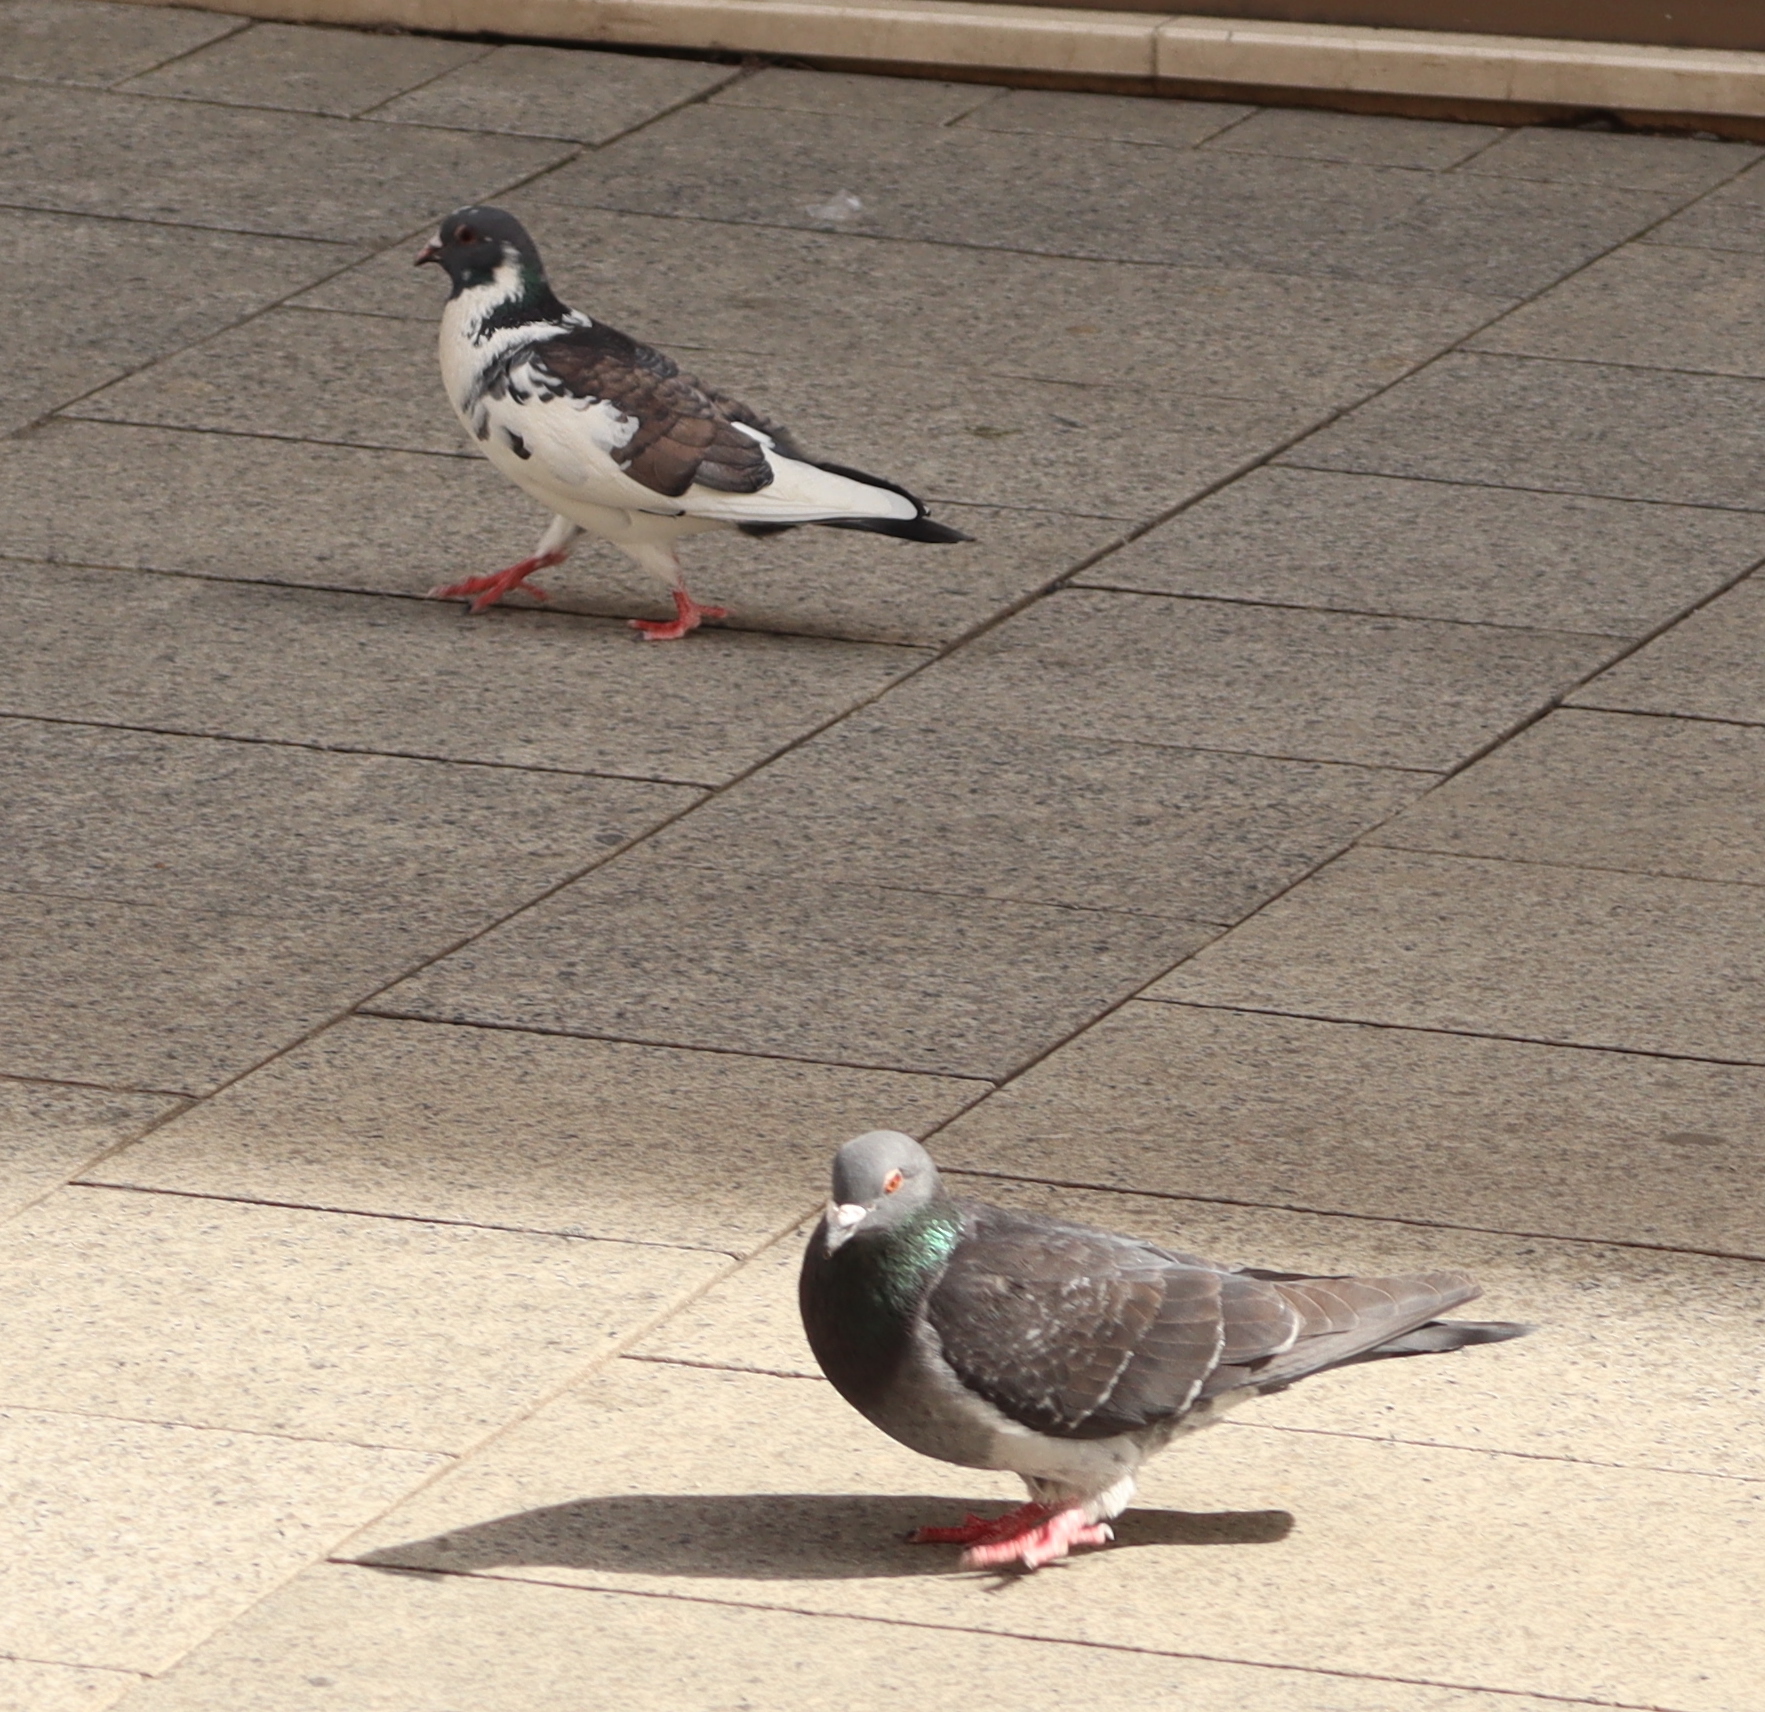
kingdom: Animalia
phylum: Chordata
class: Aves
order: Columbiformes
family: Columbidae
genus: Columba
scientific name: Columba livia
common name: Rock pigeon
